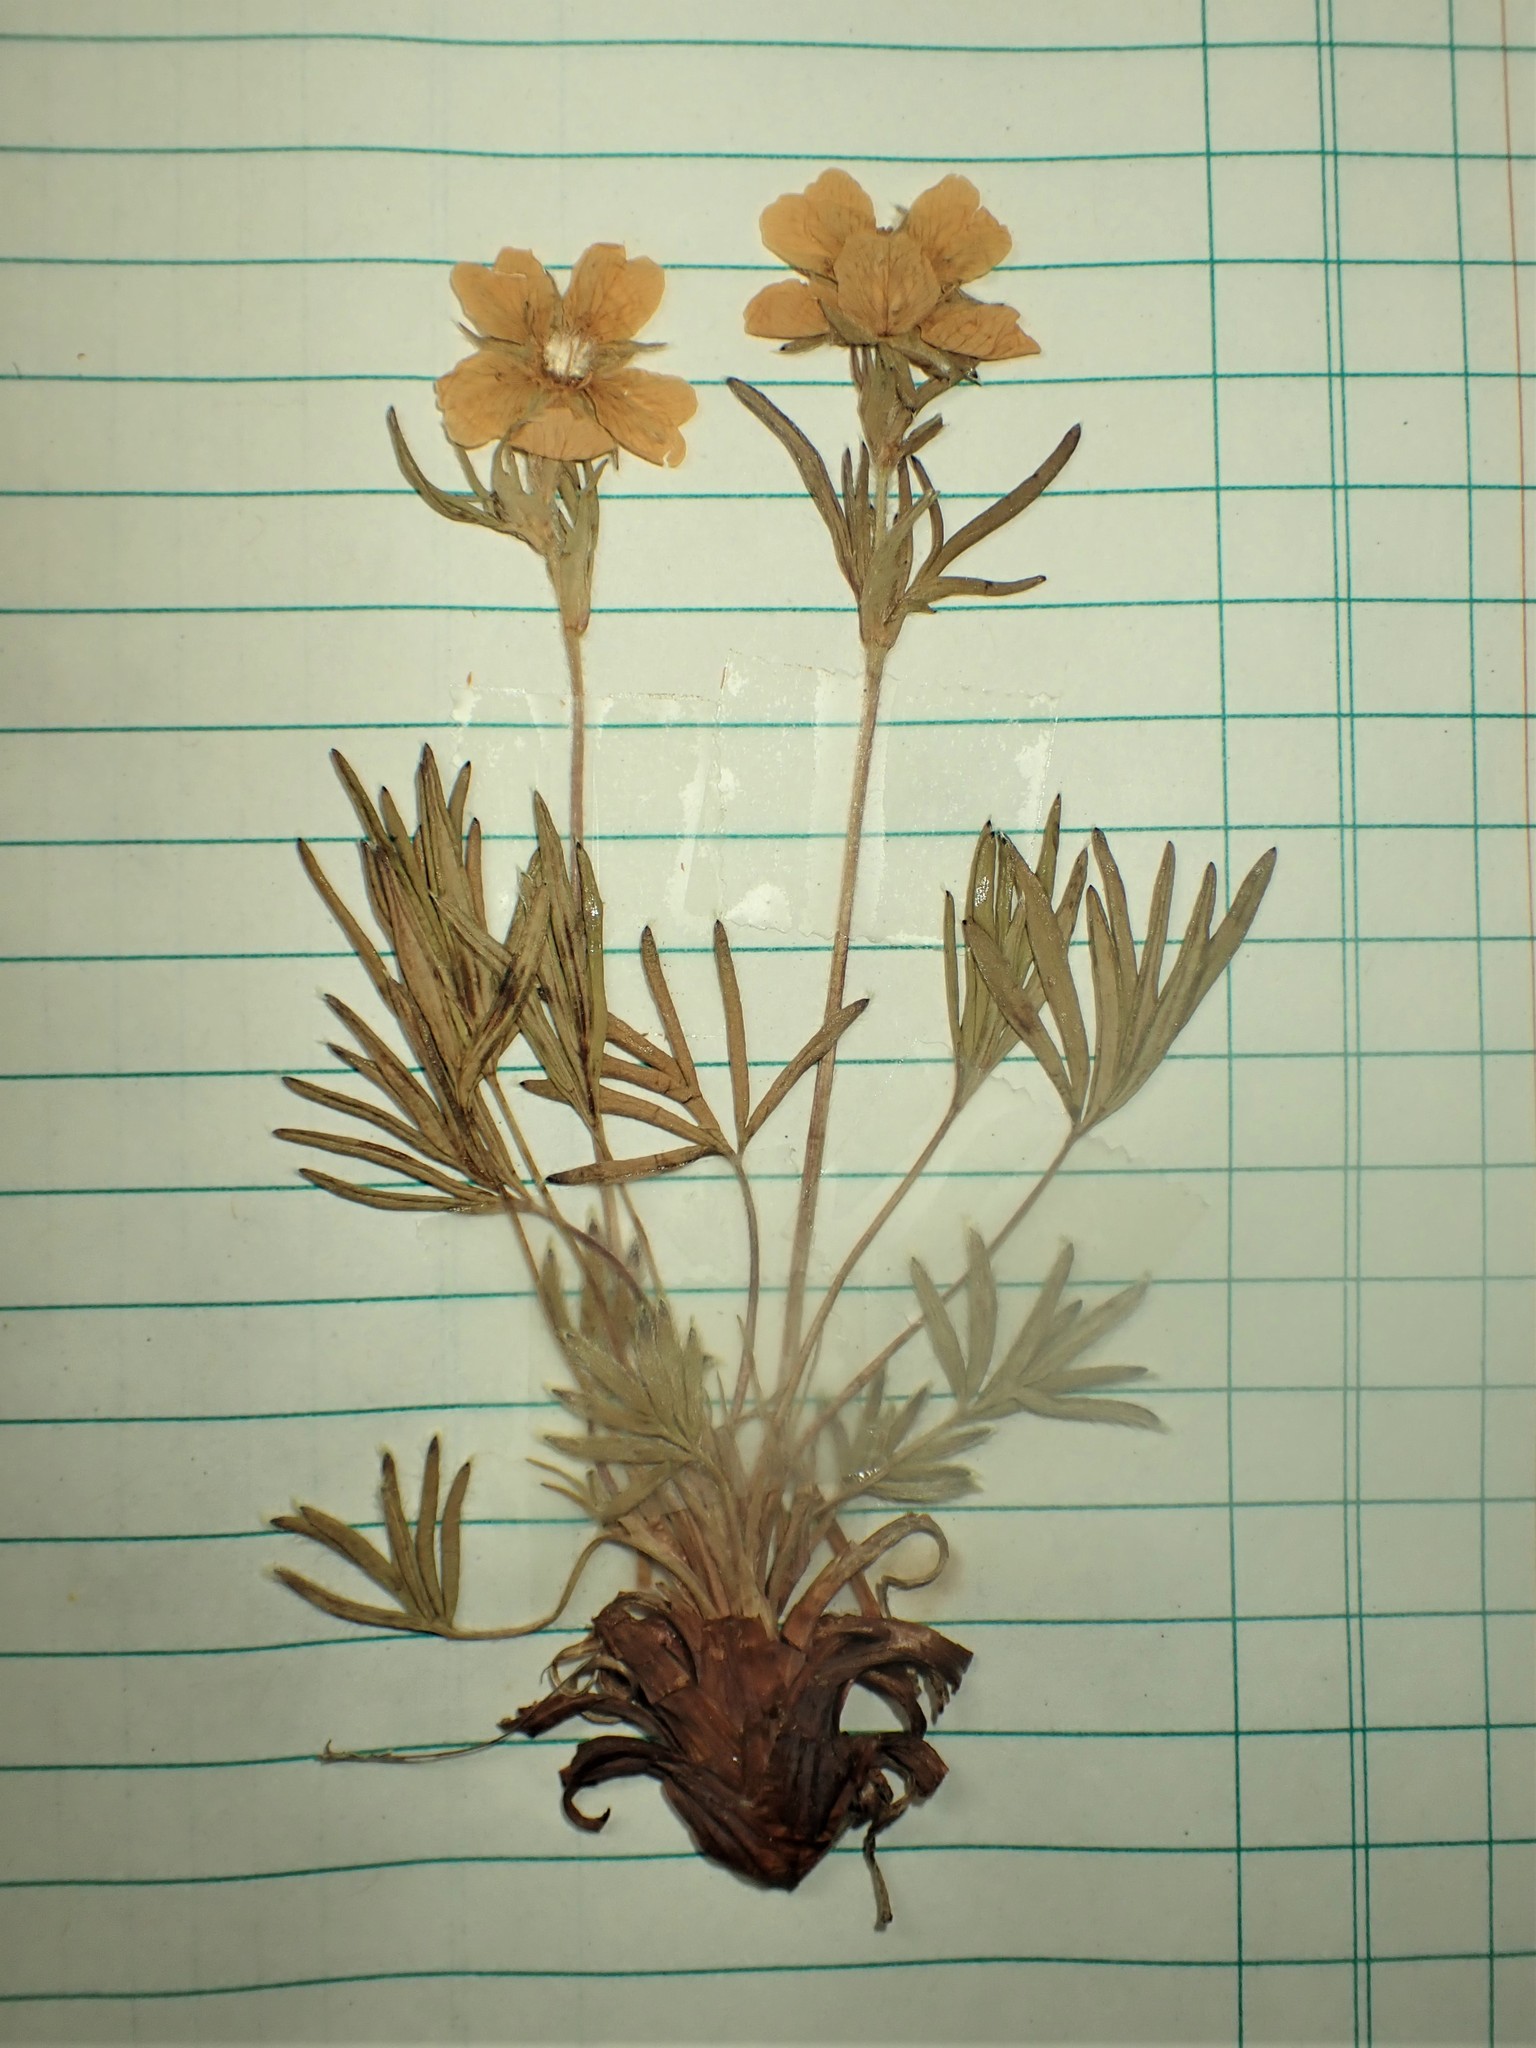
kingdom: Plantae
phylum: Tracheophyta
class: Magnoliopsida
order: Rosales
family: Rosaceae
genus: Potentilla
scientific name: Potentilla biflora
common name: Two-flowered cinquefoil
